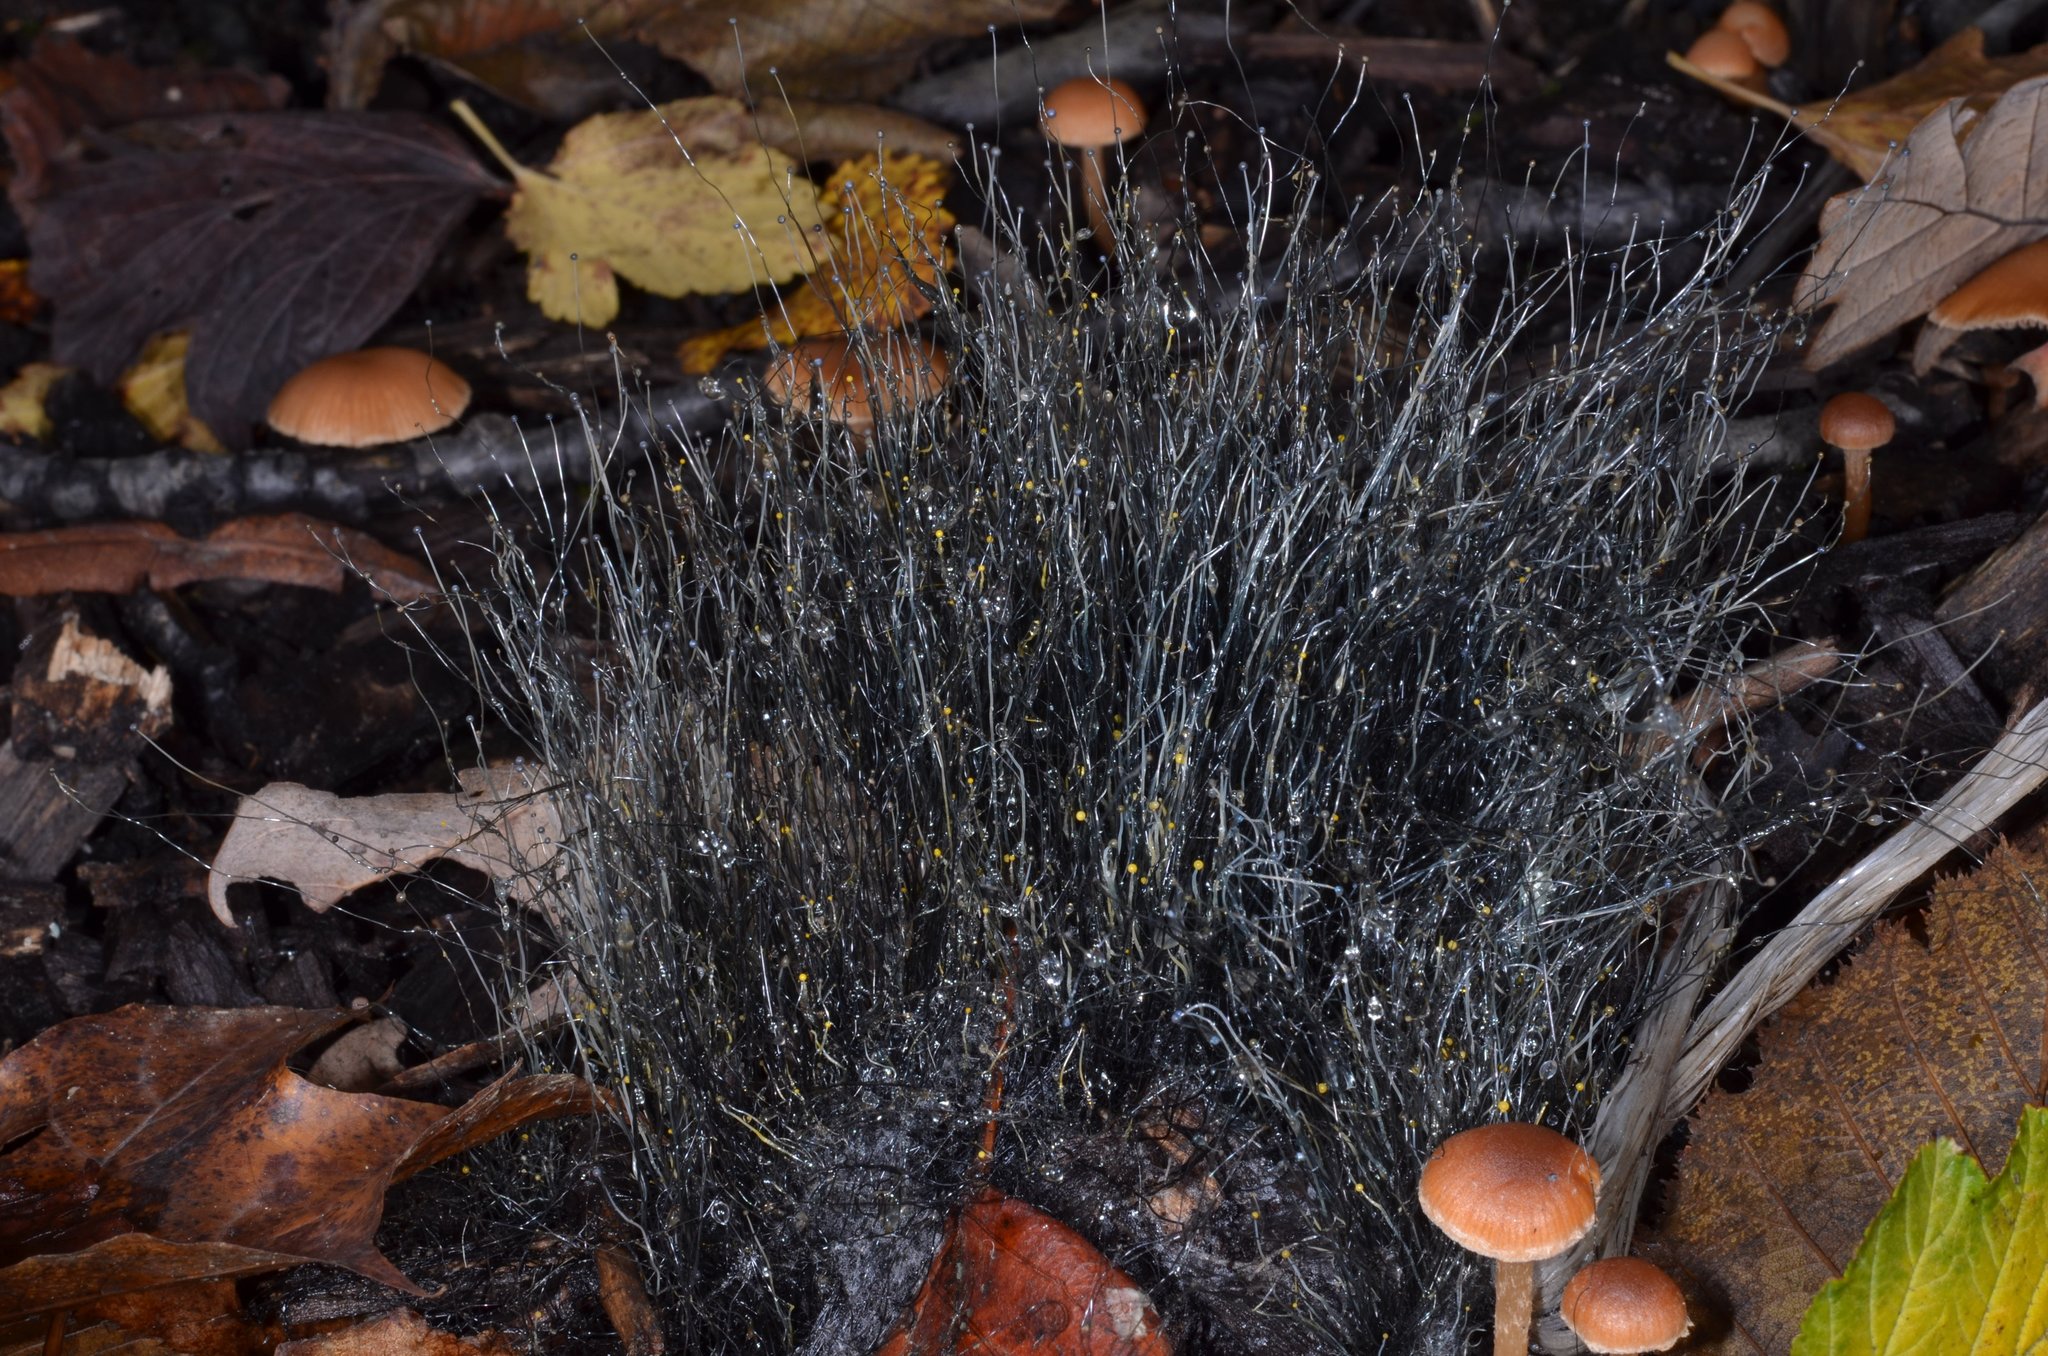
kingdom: Fungi
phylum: Mucoromycota
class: Mucoromycetes
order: Mucorales
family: Phycomycetaceae
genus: Phycomyces
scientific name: Phycomyces
